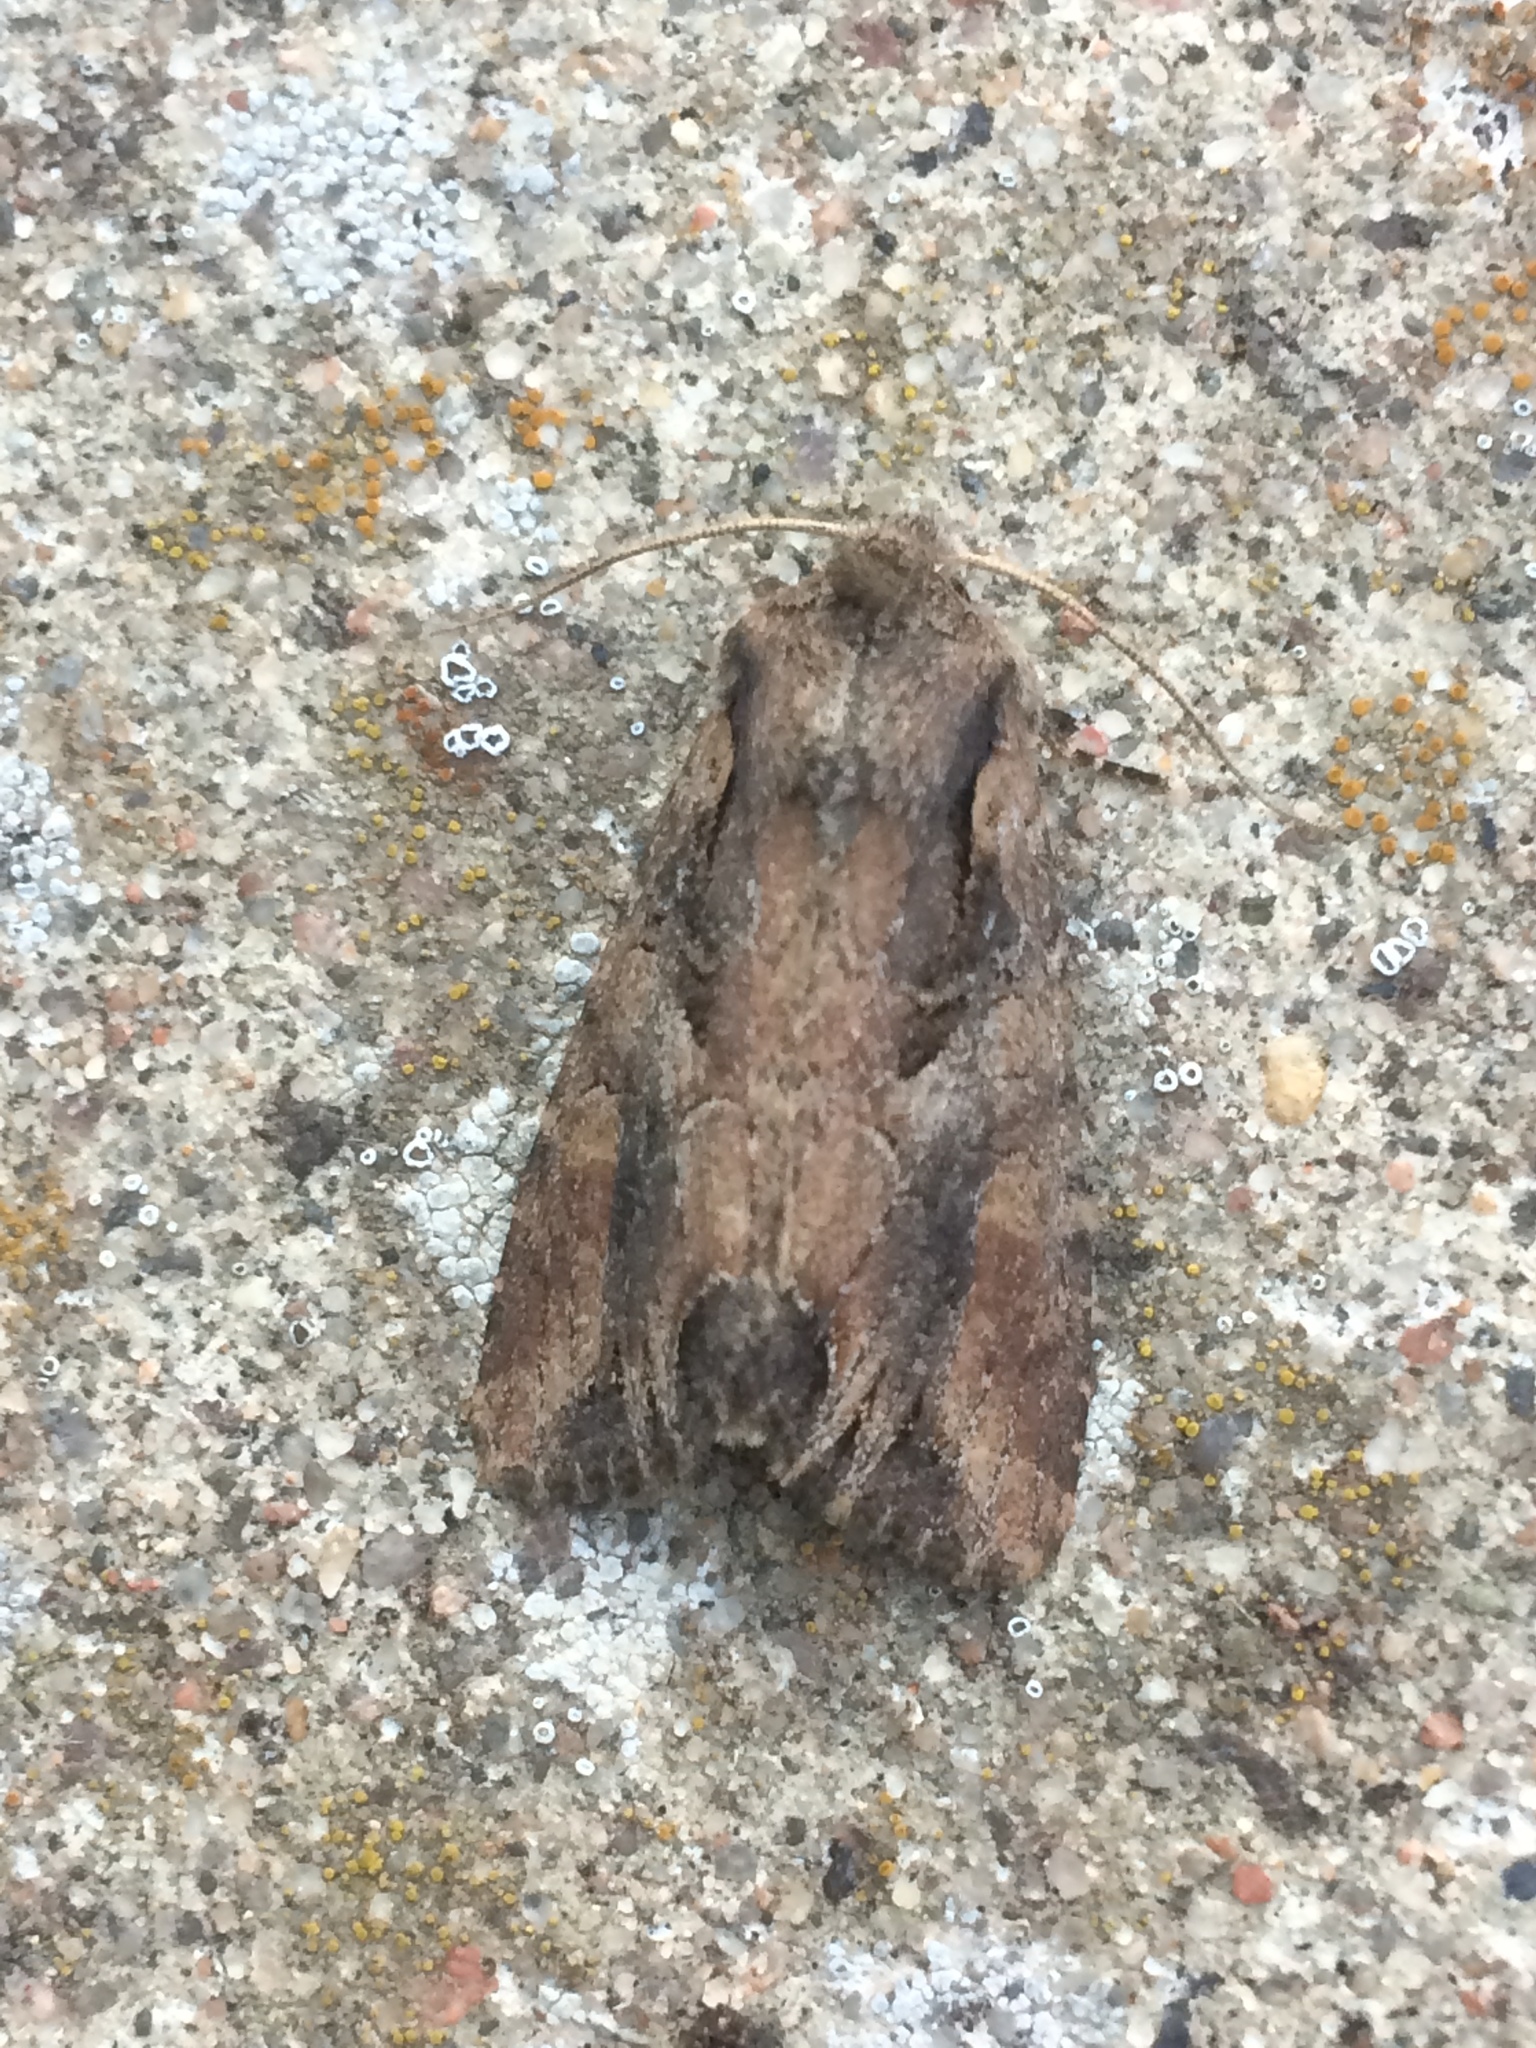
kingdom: Animalia
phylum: Arthropoda
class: Insecta
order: Lepidoptera
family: Noctuidae
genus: Lacanobia
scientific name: Lacanobia suasa
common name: Dog's tooth
